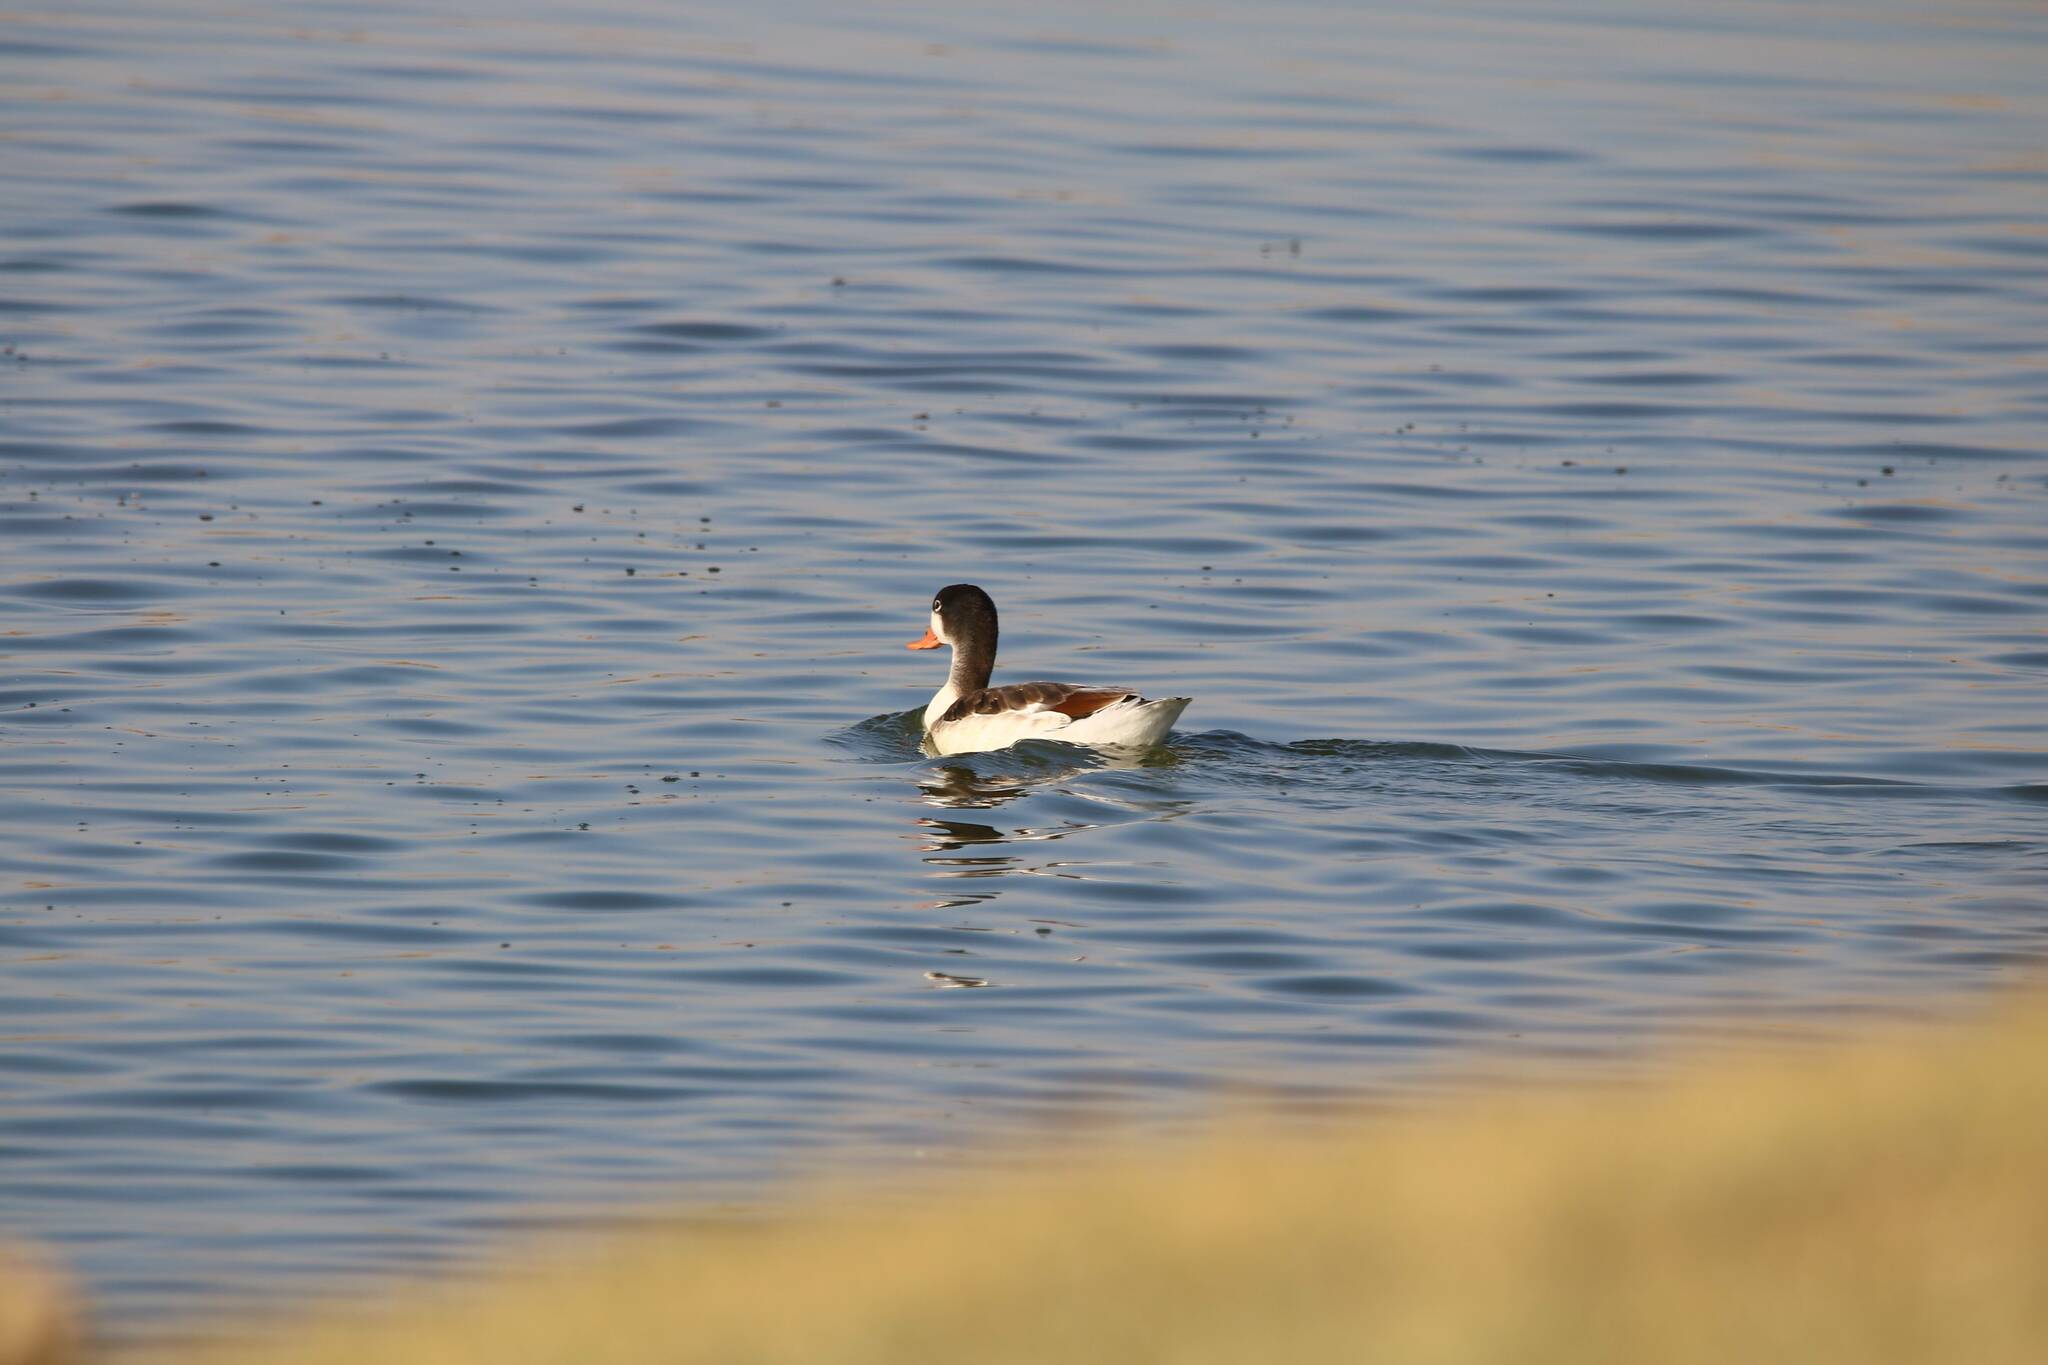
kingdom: Animalia
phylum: Chordata
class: Aves
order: Anseriformes
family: Anatidae
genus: Tadorna
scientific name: Tadorna tadorna
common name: Common shelduck
